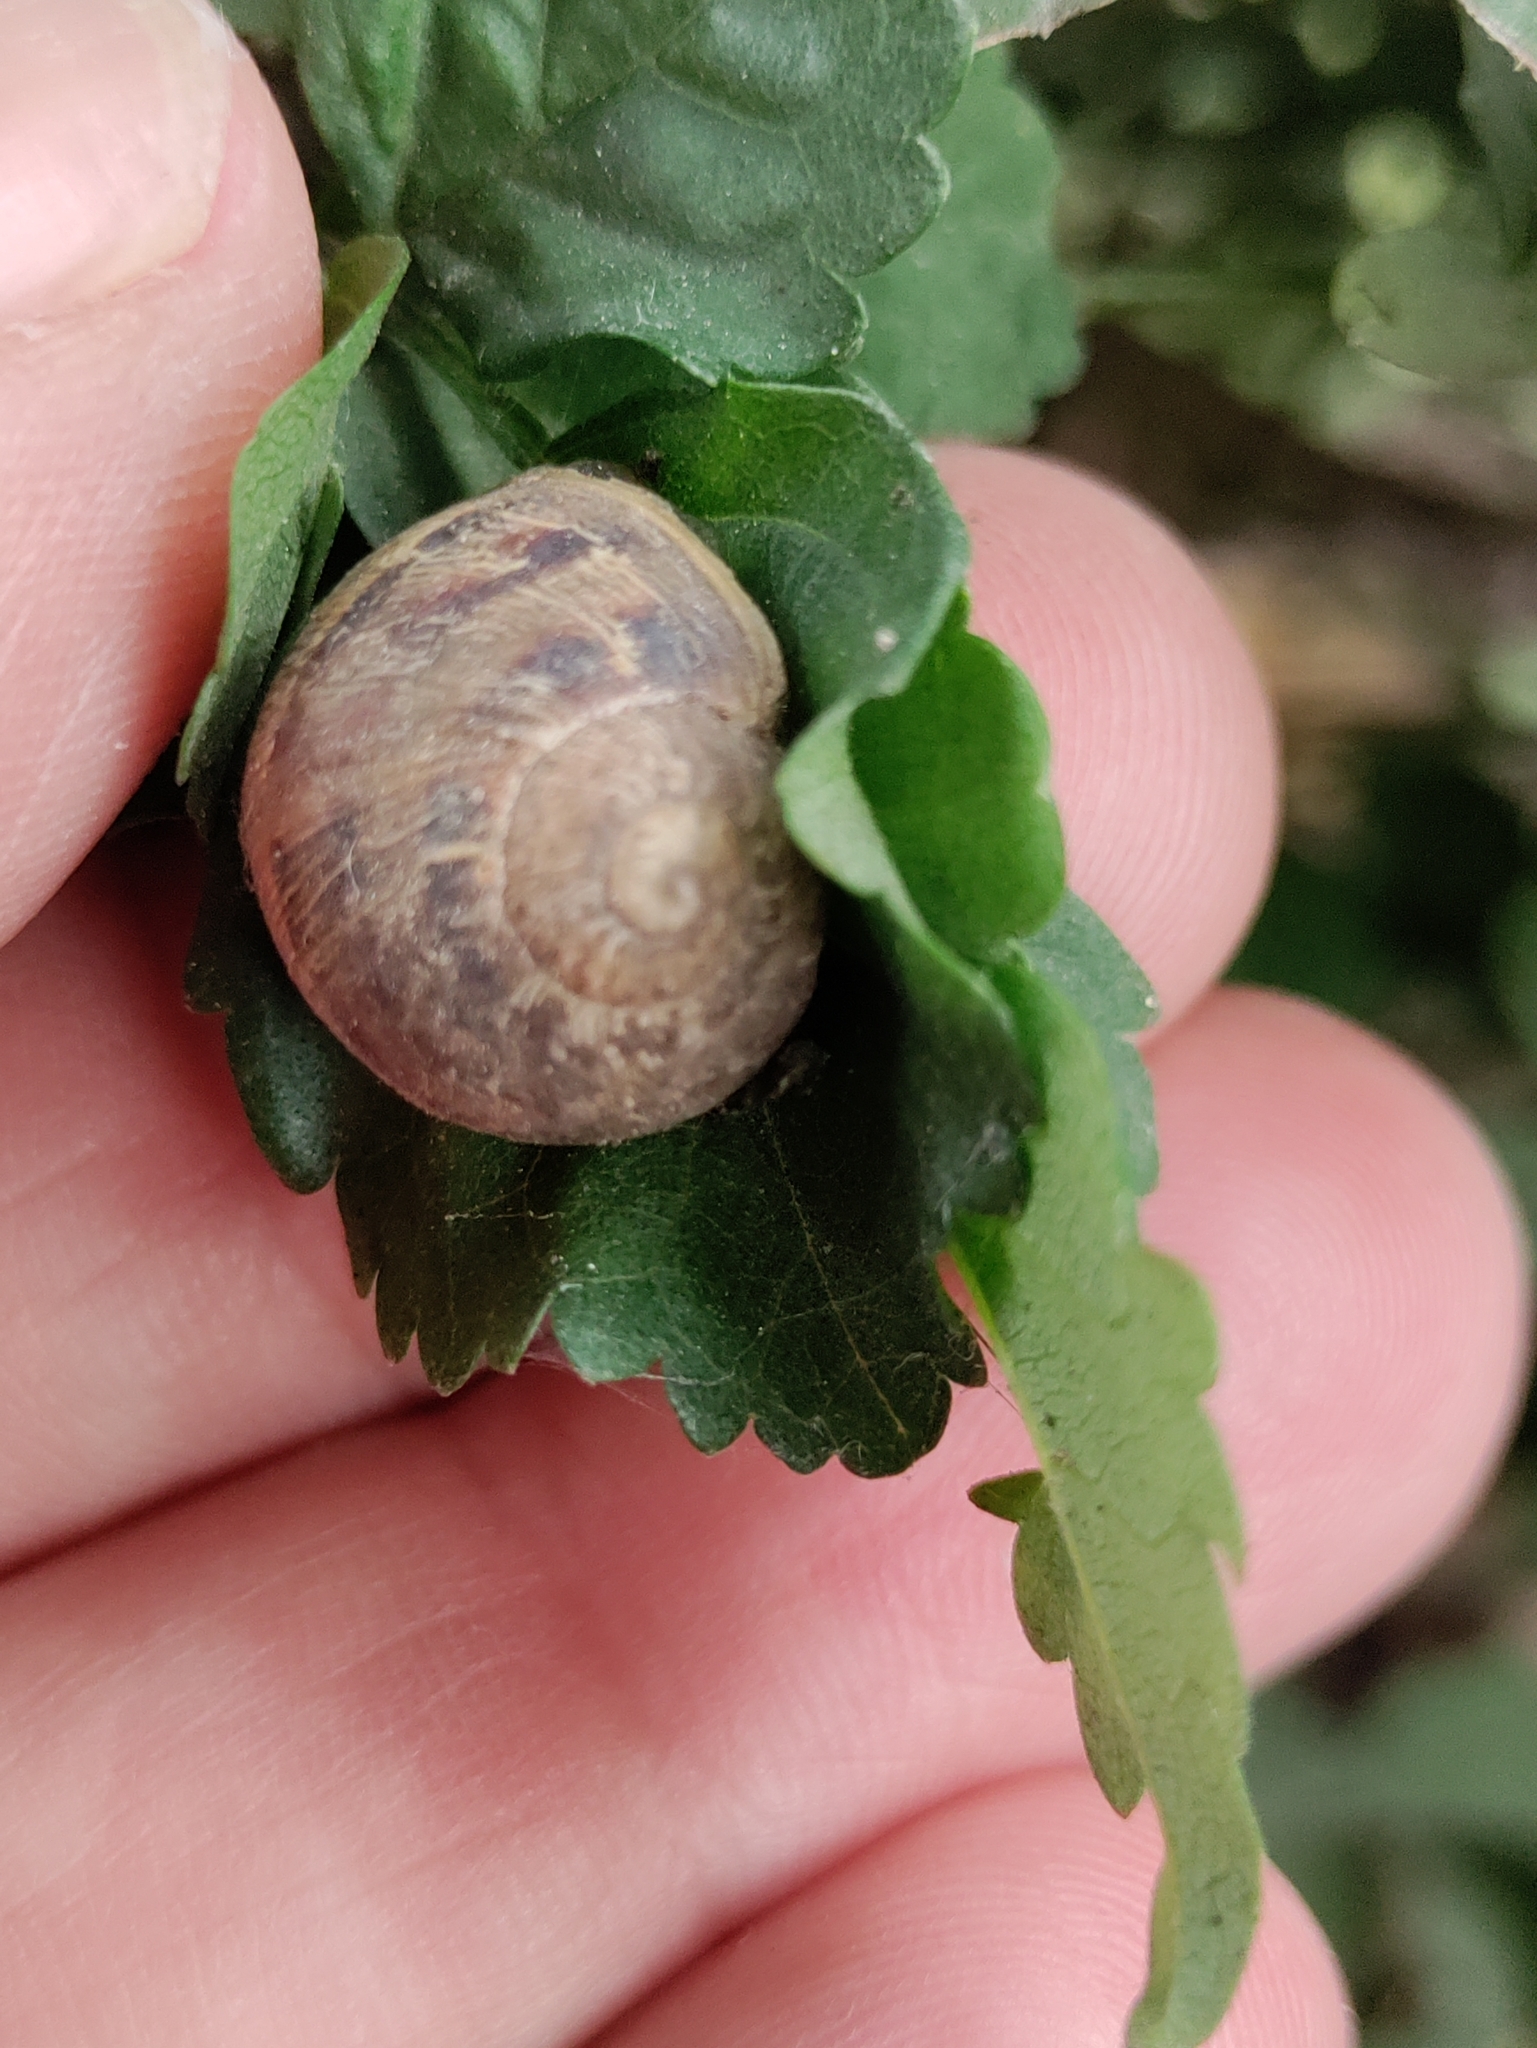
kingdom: Animalia
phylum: Mollusca
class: Gastropoda
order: Stylommatophora
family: Helicidae
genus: Cornu
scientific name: Cornu aspersum
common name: Brown garden snail
